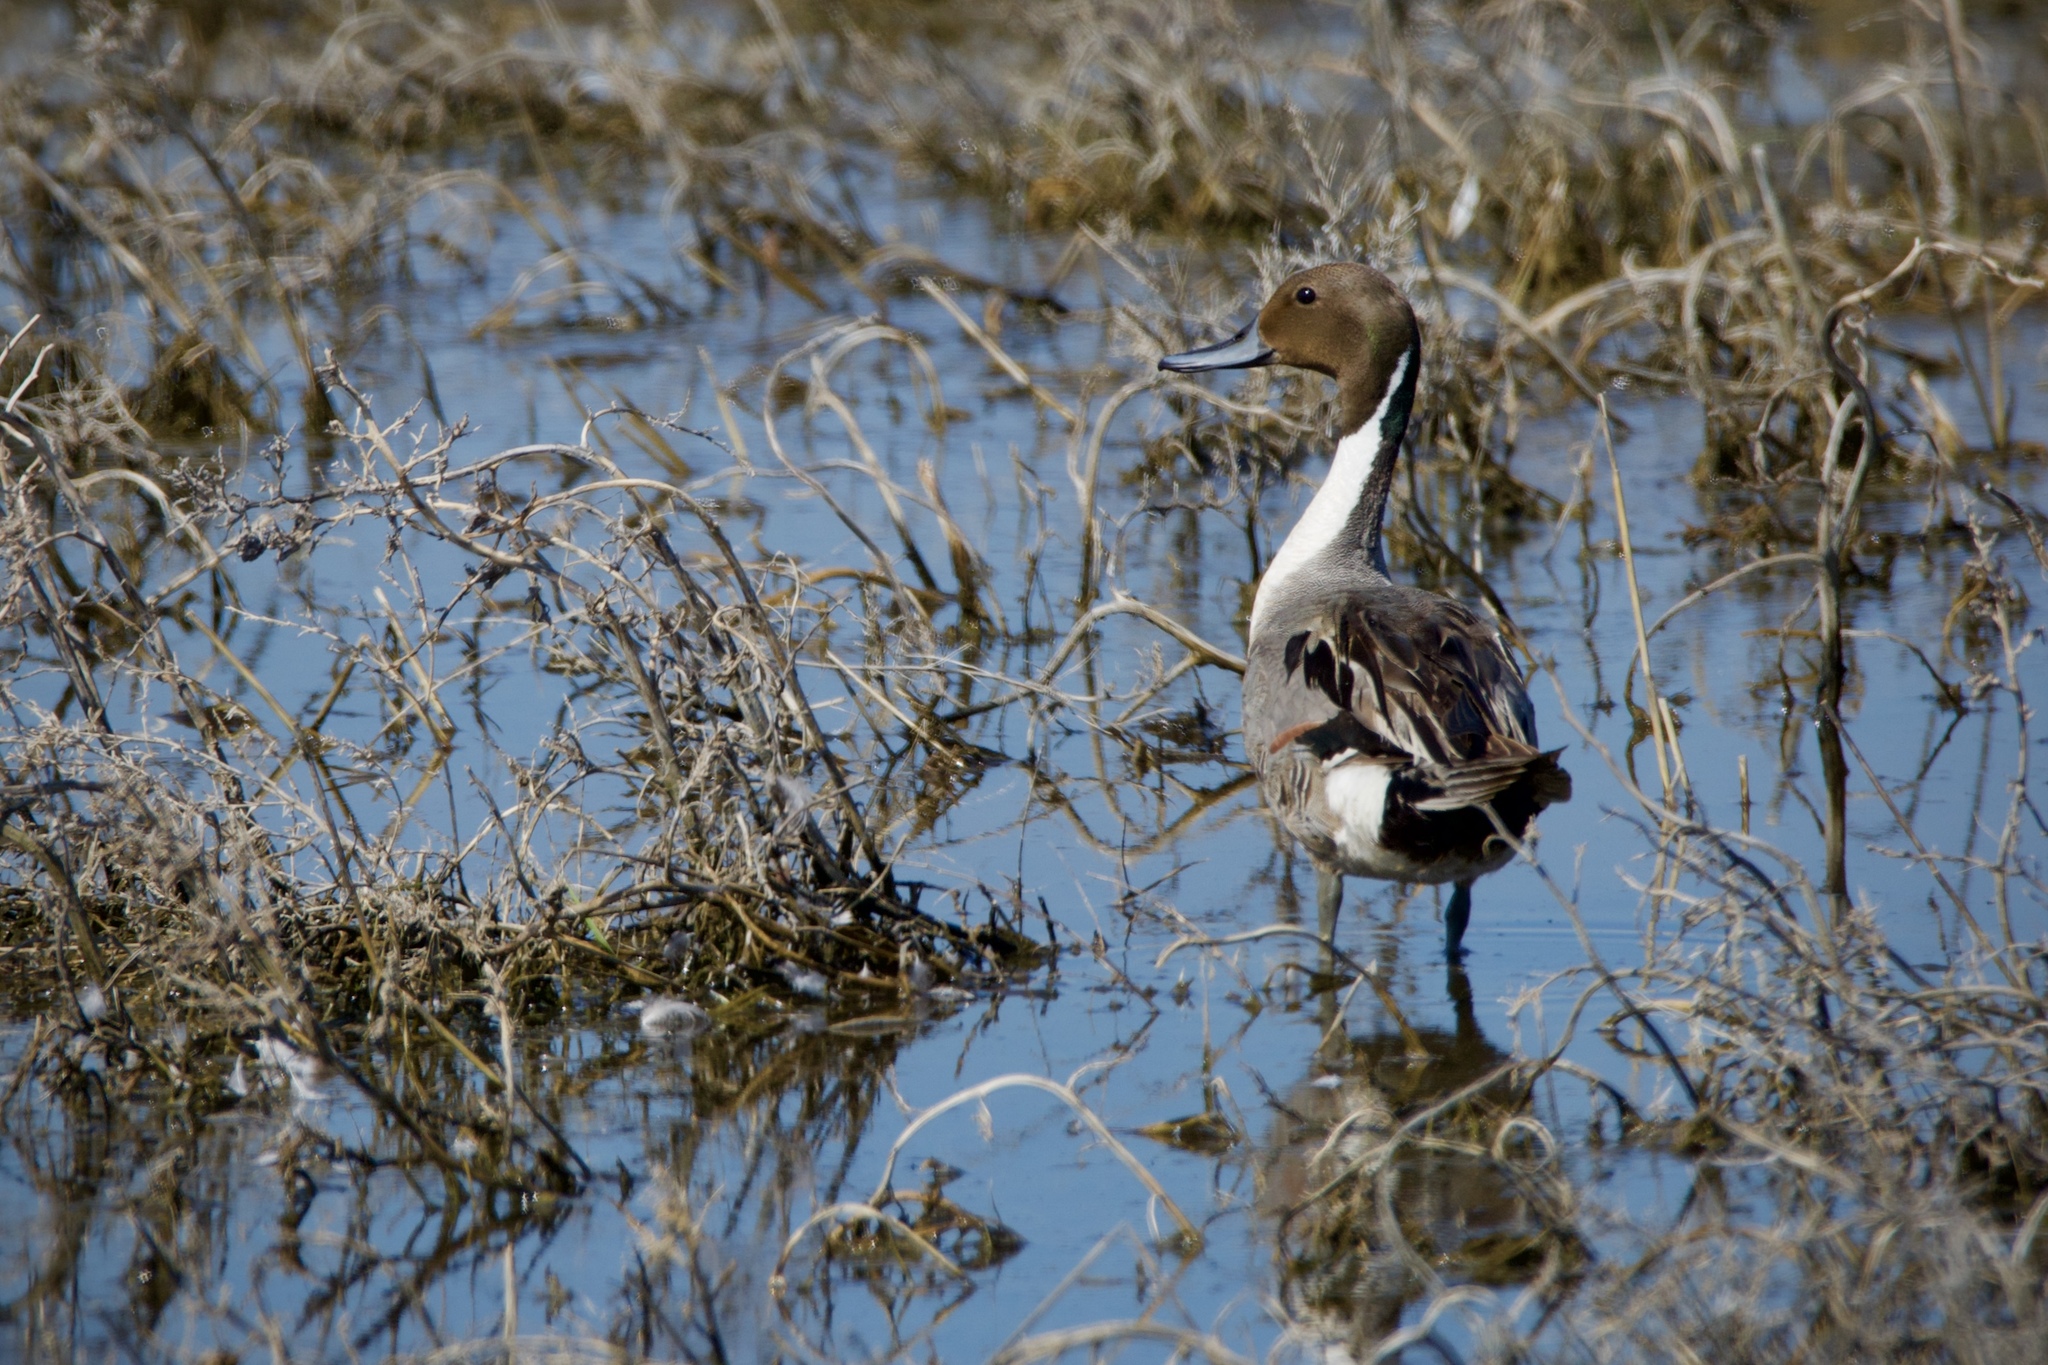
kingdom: Animalia
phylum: Chordata
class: Aves
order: Anseriformes
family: Anatidae
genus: Anas
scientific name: Anas acuta
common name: Northern pintail
